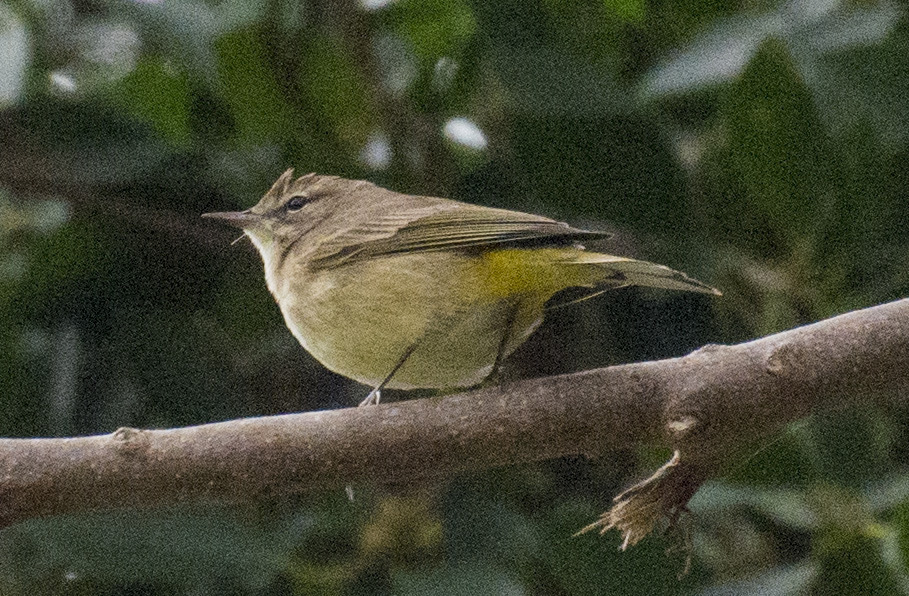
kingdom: Animalia
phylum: Chordata
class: Aves
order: Passeriformes
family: Parulidae
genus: Setophaga
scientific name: Setophaga palmarum
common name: Palm warbler
